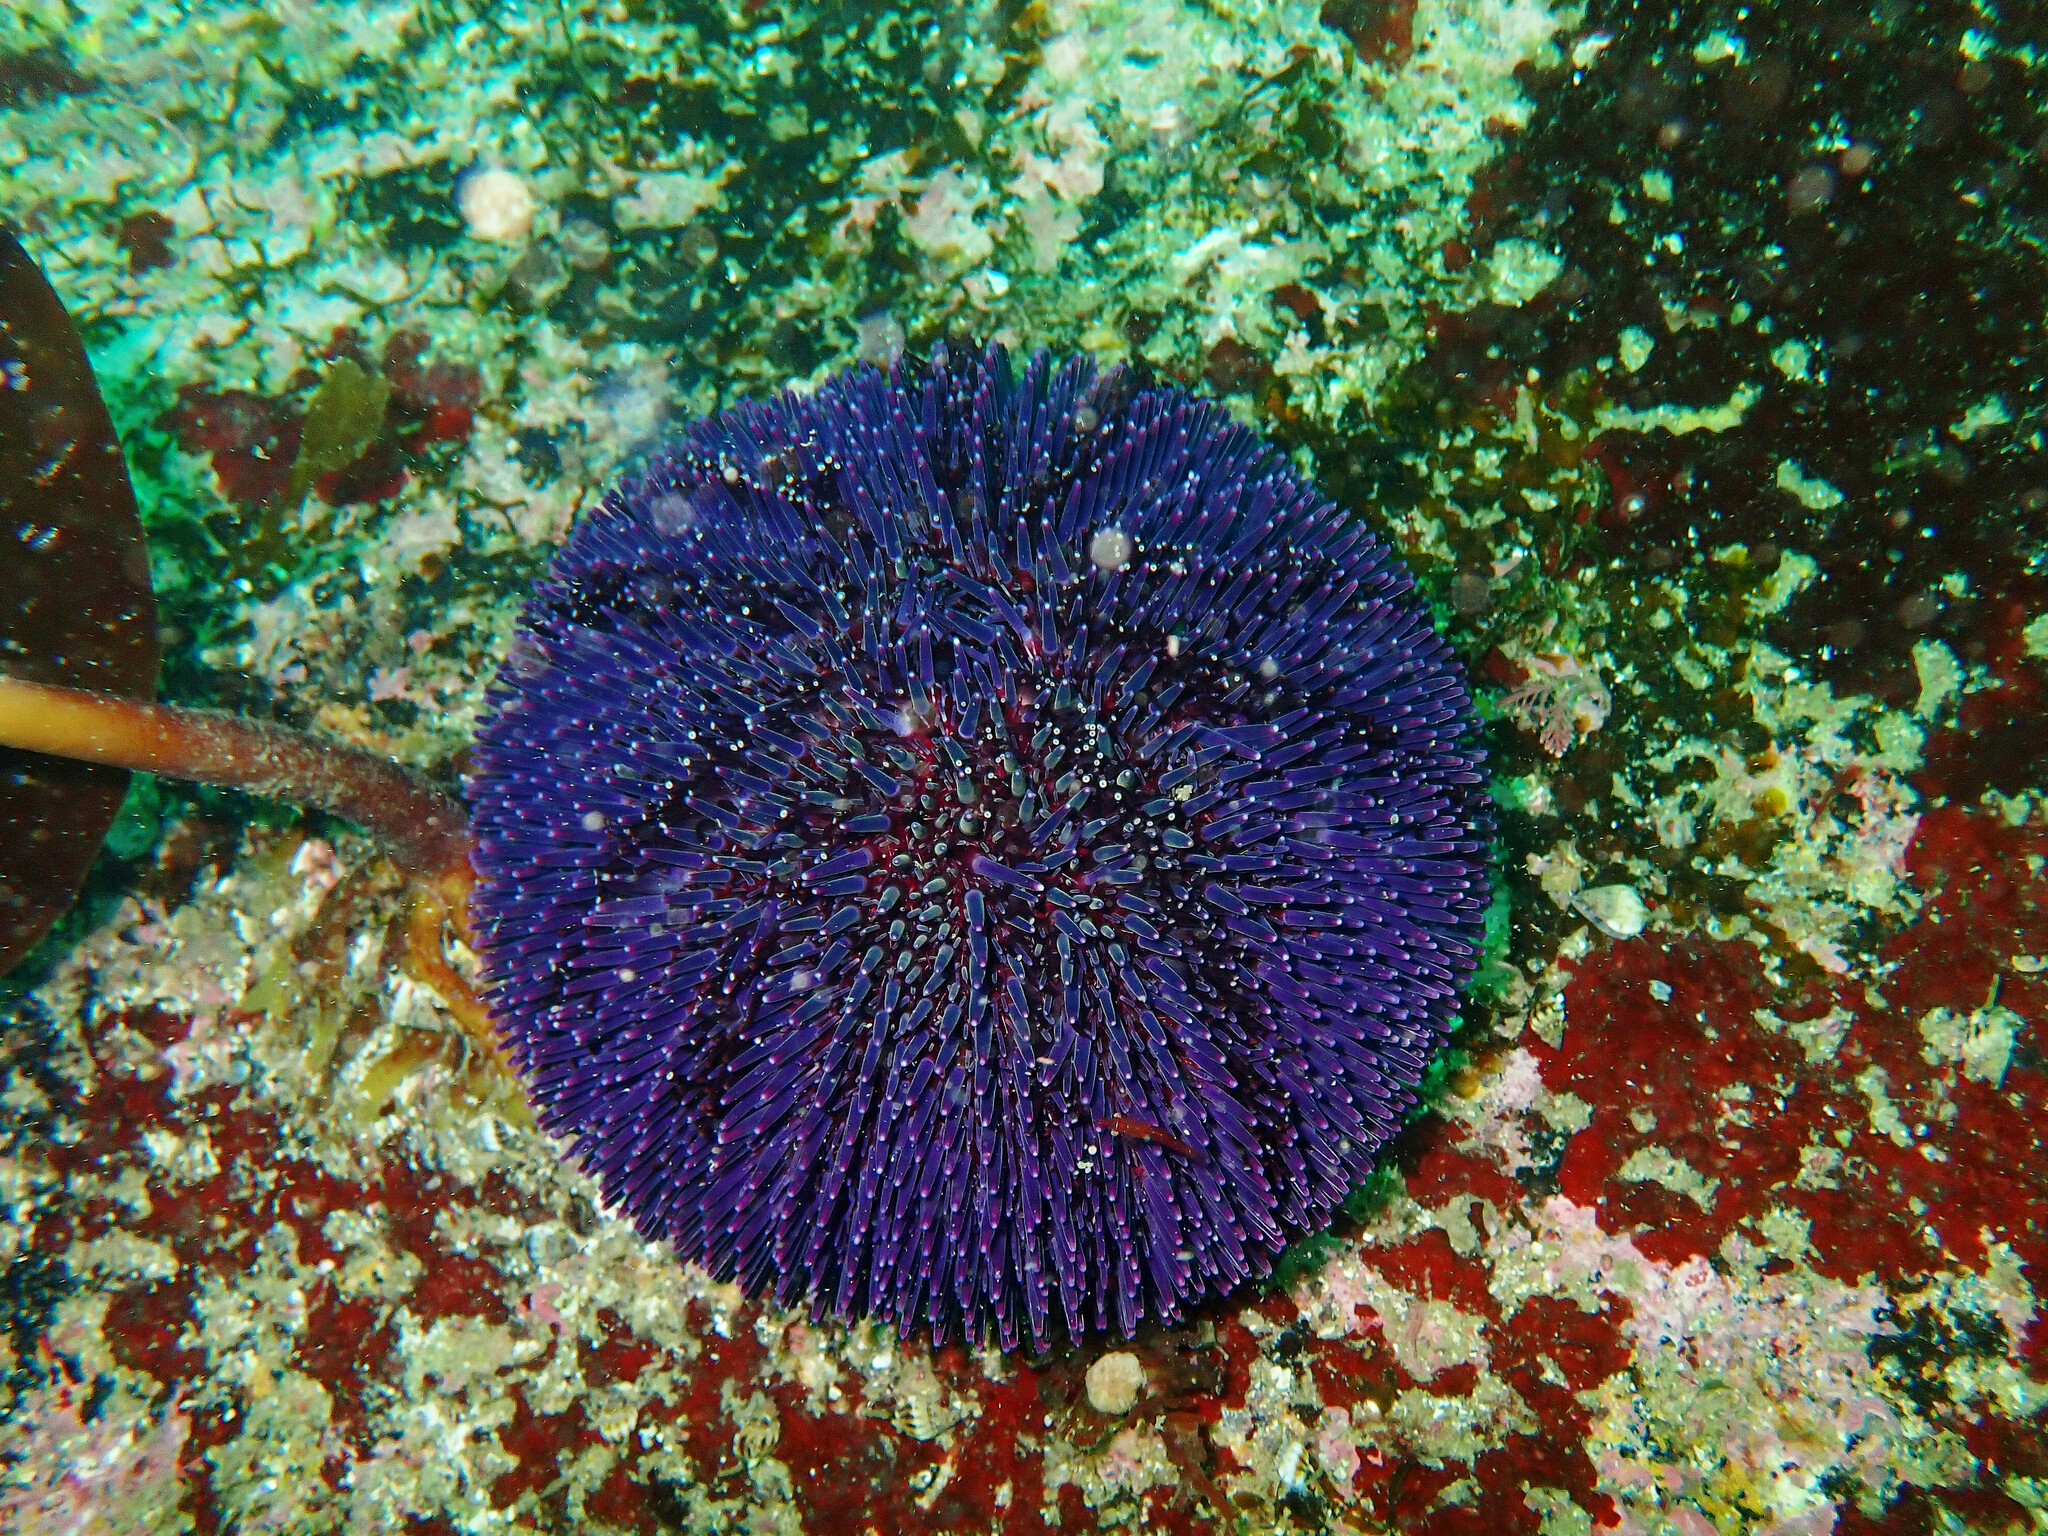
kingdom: Animalia
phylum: Echinodermata
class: Echinoidea
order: Camarodonta
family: Toxopneustidae
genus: Sphaerechinus
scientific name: Sphaerechinus granularis
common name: Violet sea urchin
